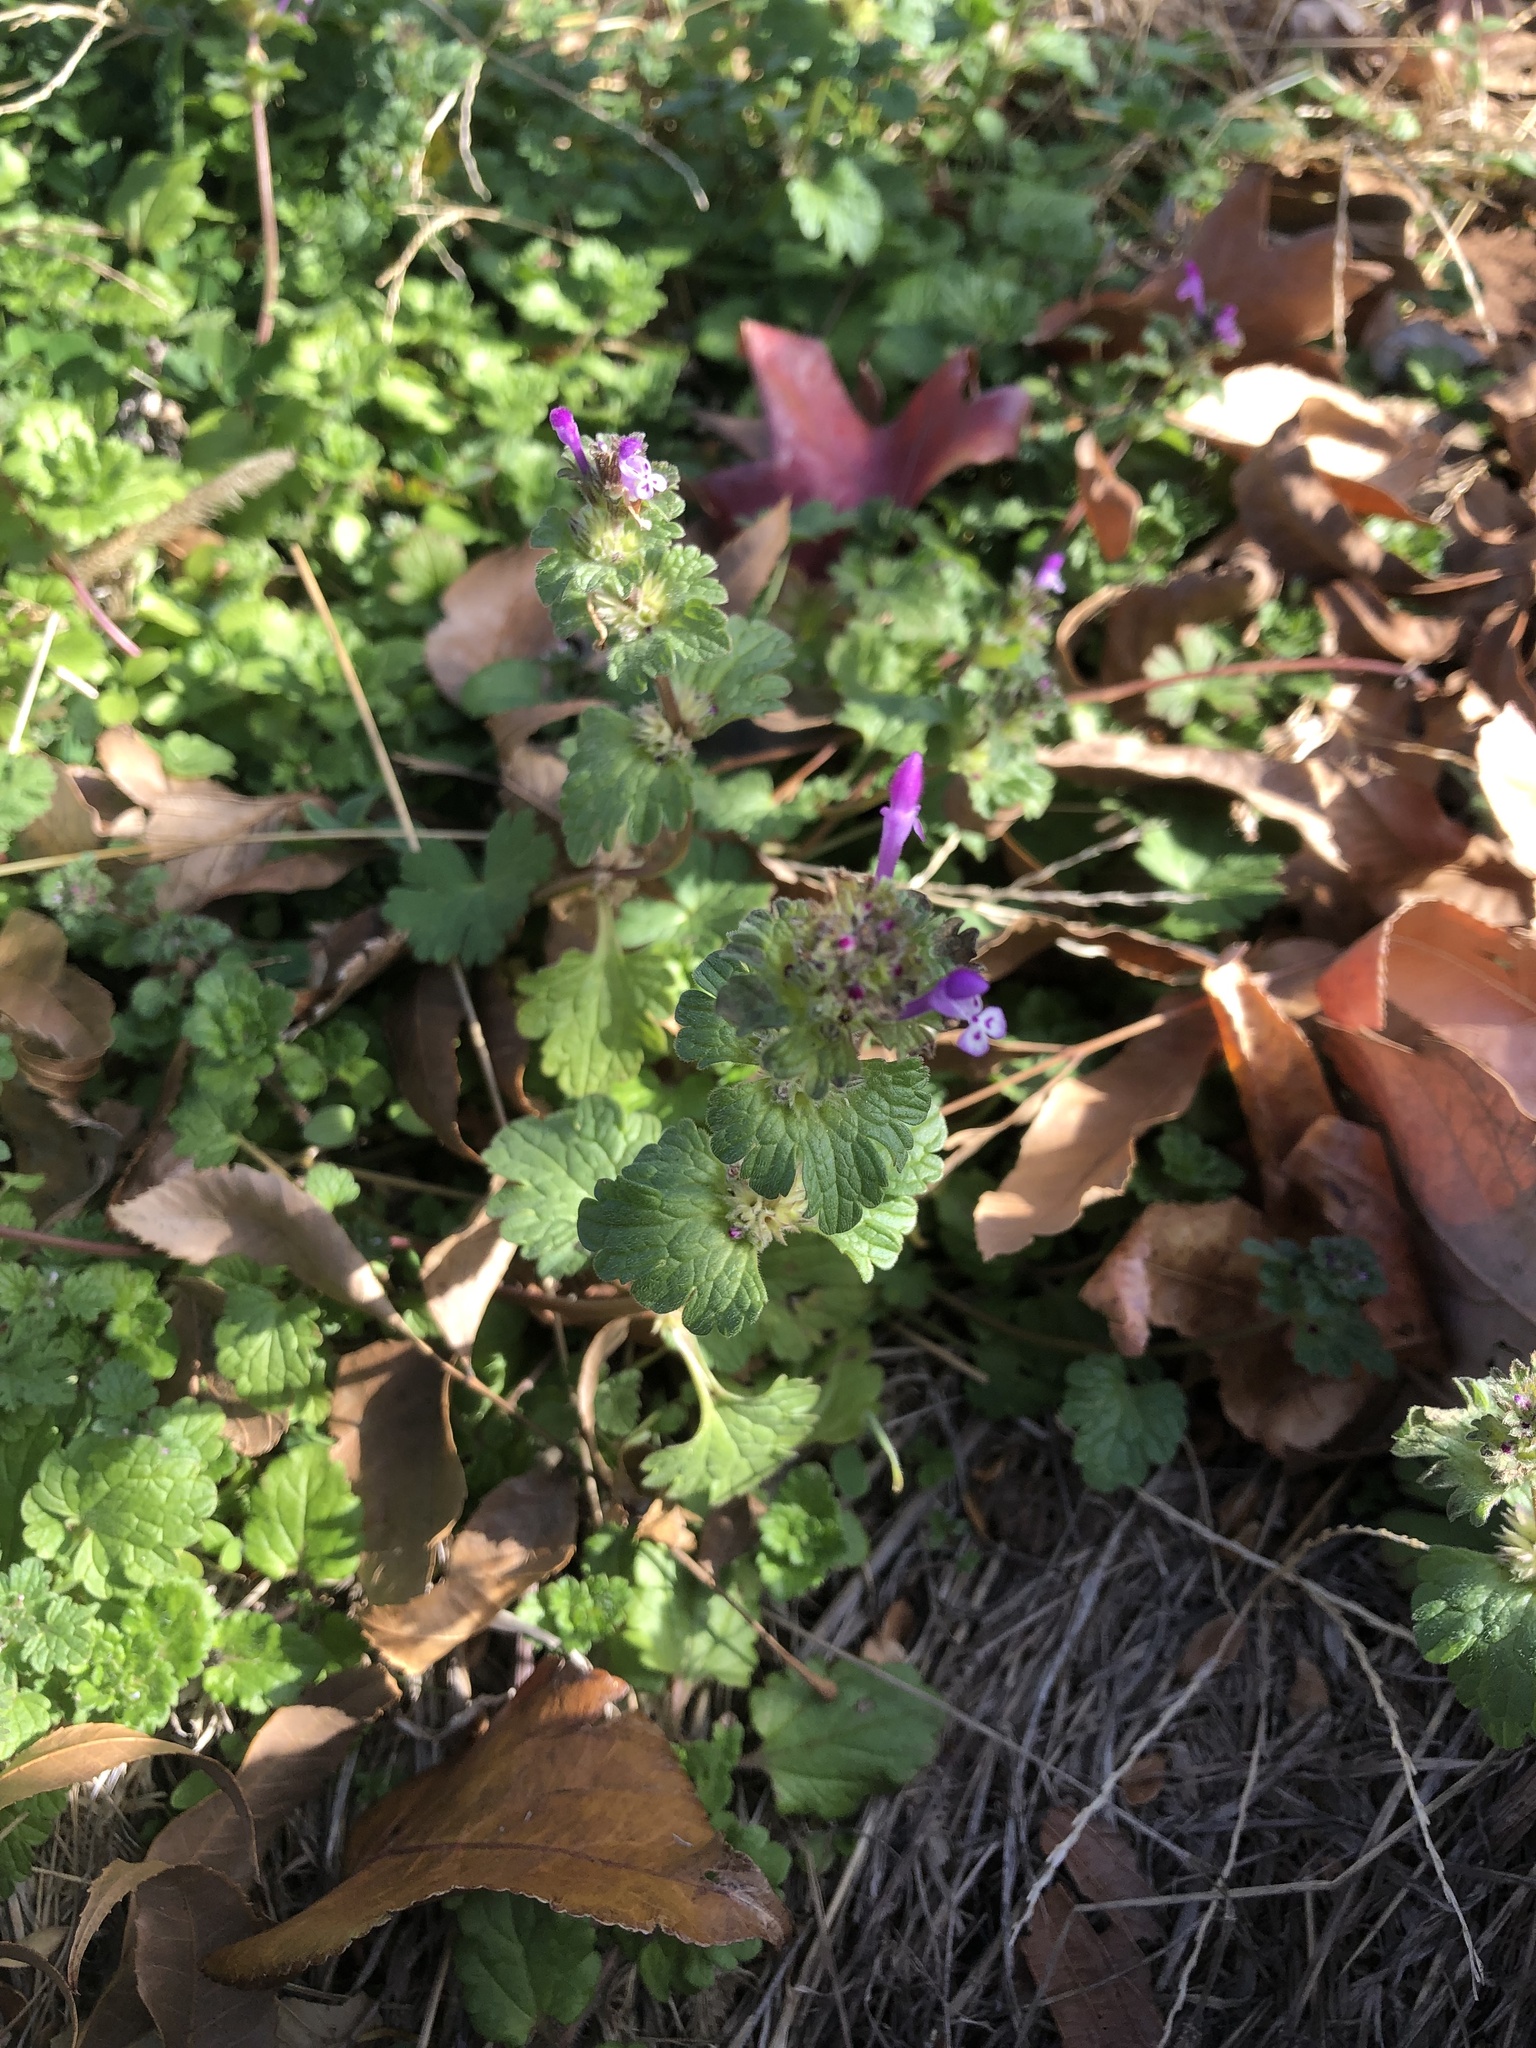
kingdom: Plantae
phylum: Tracheophyta
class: Magnoliopsida
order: Lamiales
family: Lamiaceae
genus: Lamium
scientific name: Lamium amplexicaule
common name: Henbit dead-nettle
